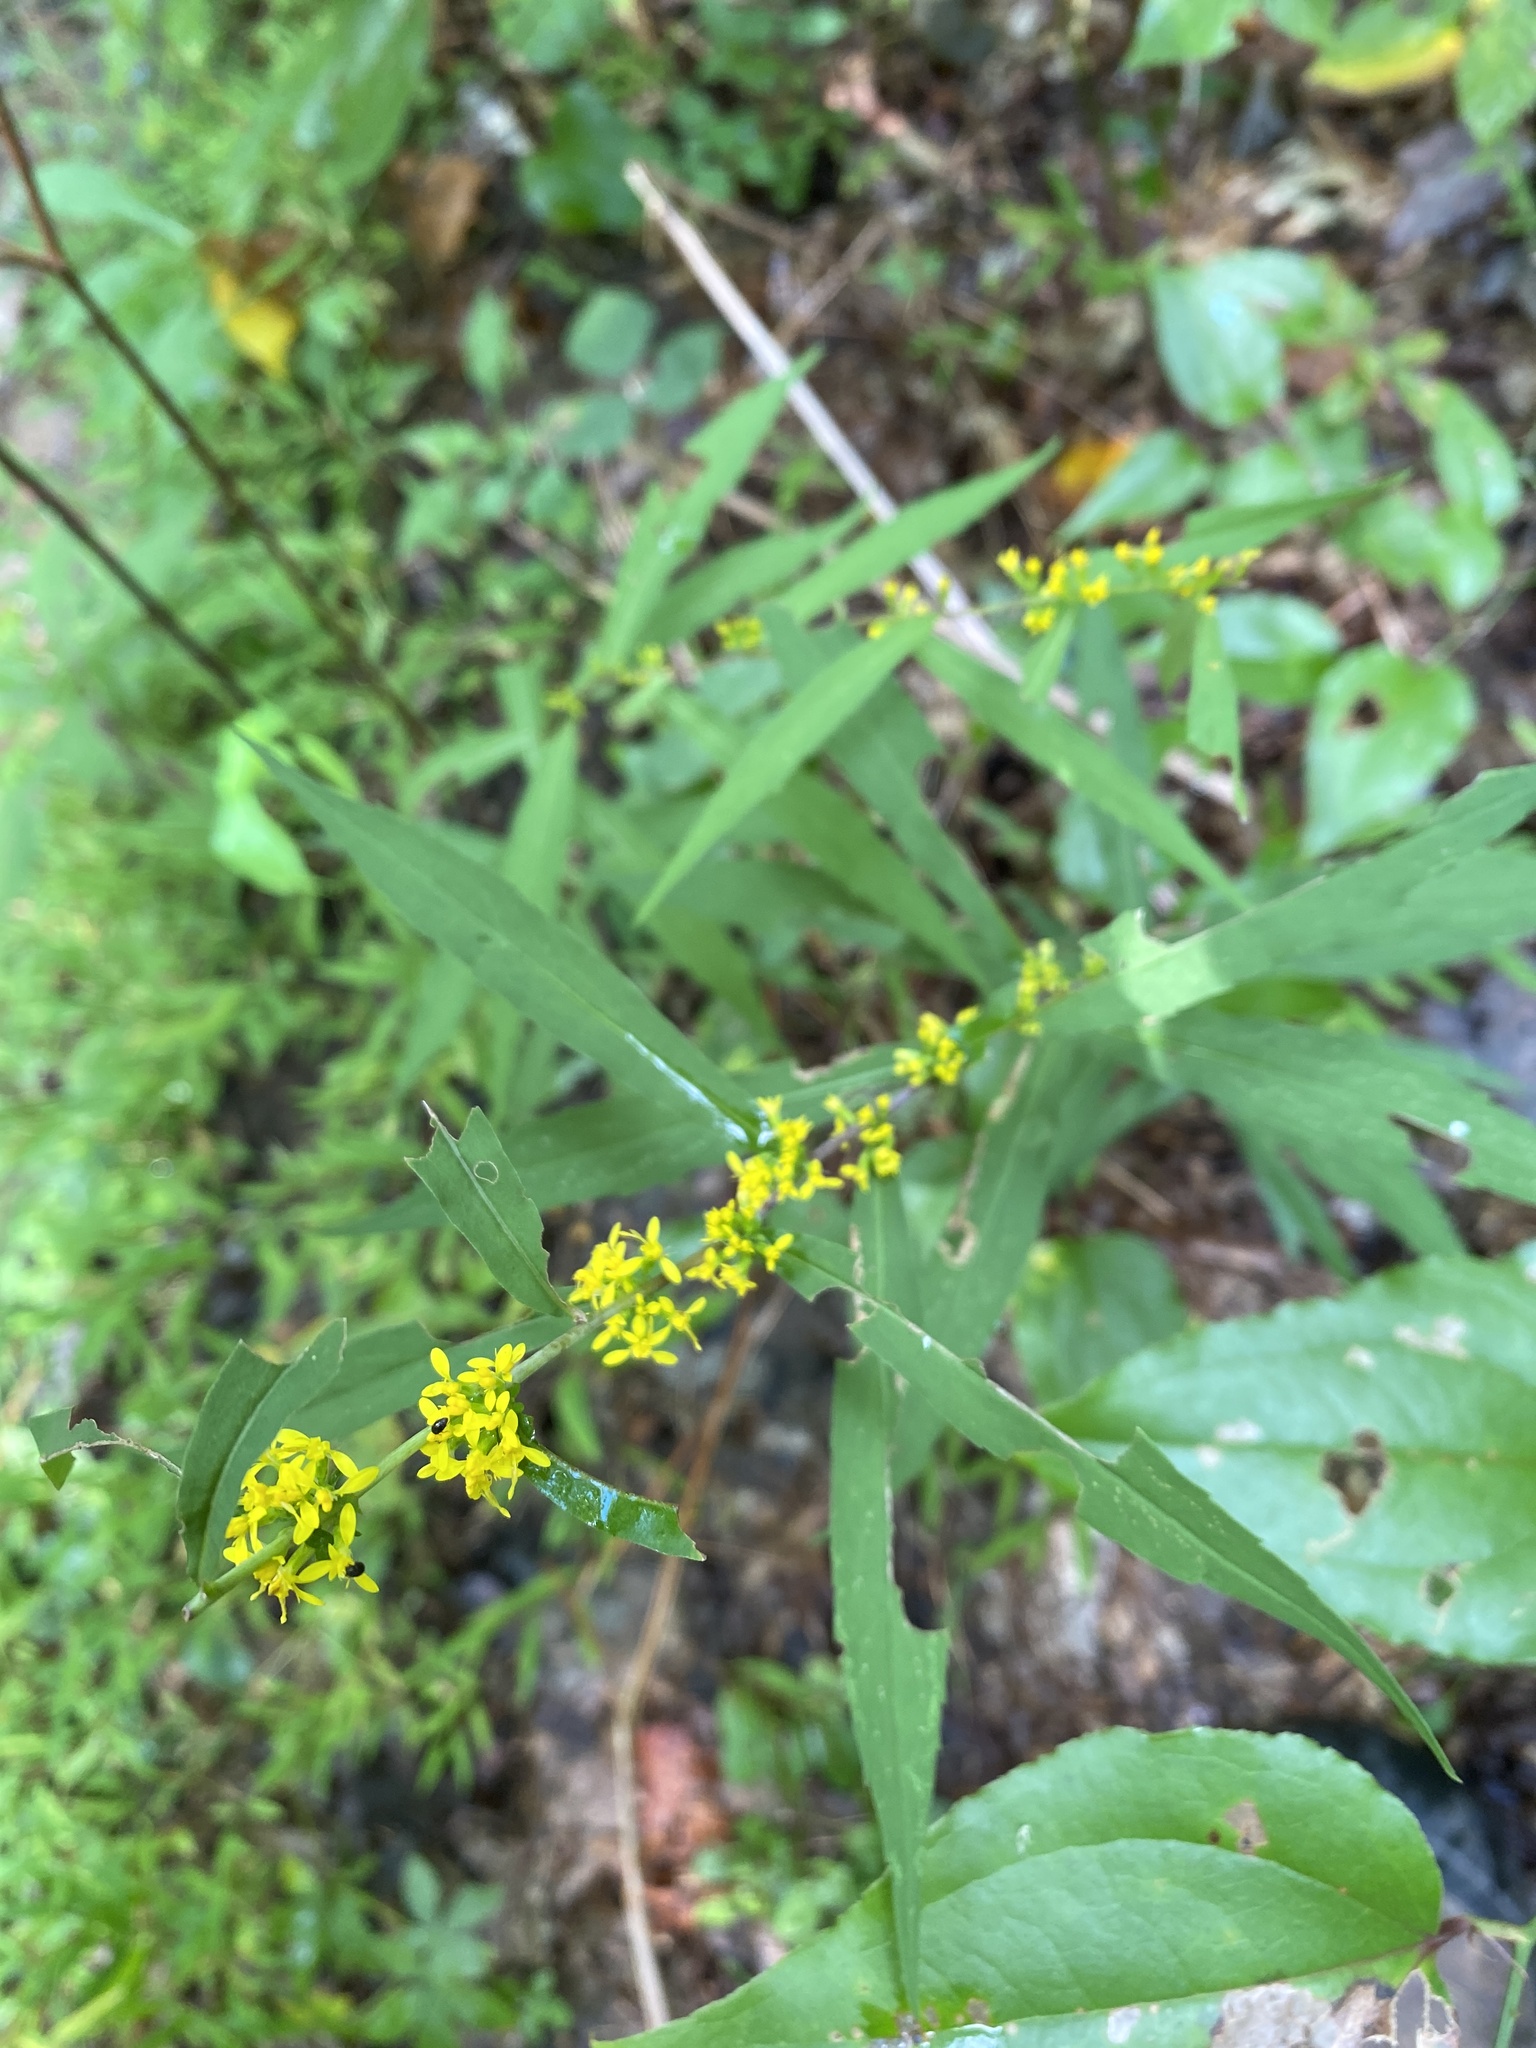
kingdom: Plantae
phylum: Tracheophyta
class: Magnoliopsida
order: Asterales
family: Asteraceae
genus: Solidago
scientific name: Solidago caesia
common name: Woodland goldenrod
